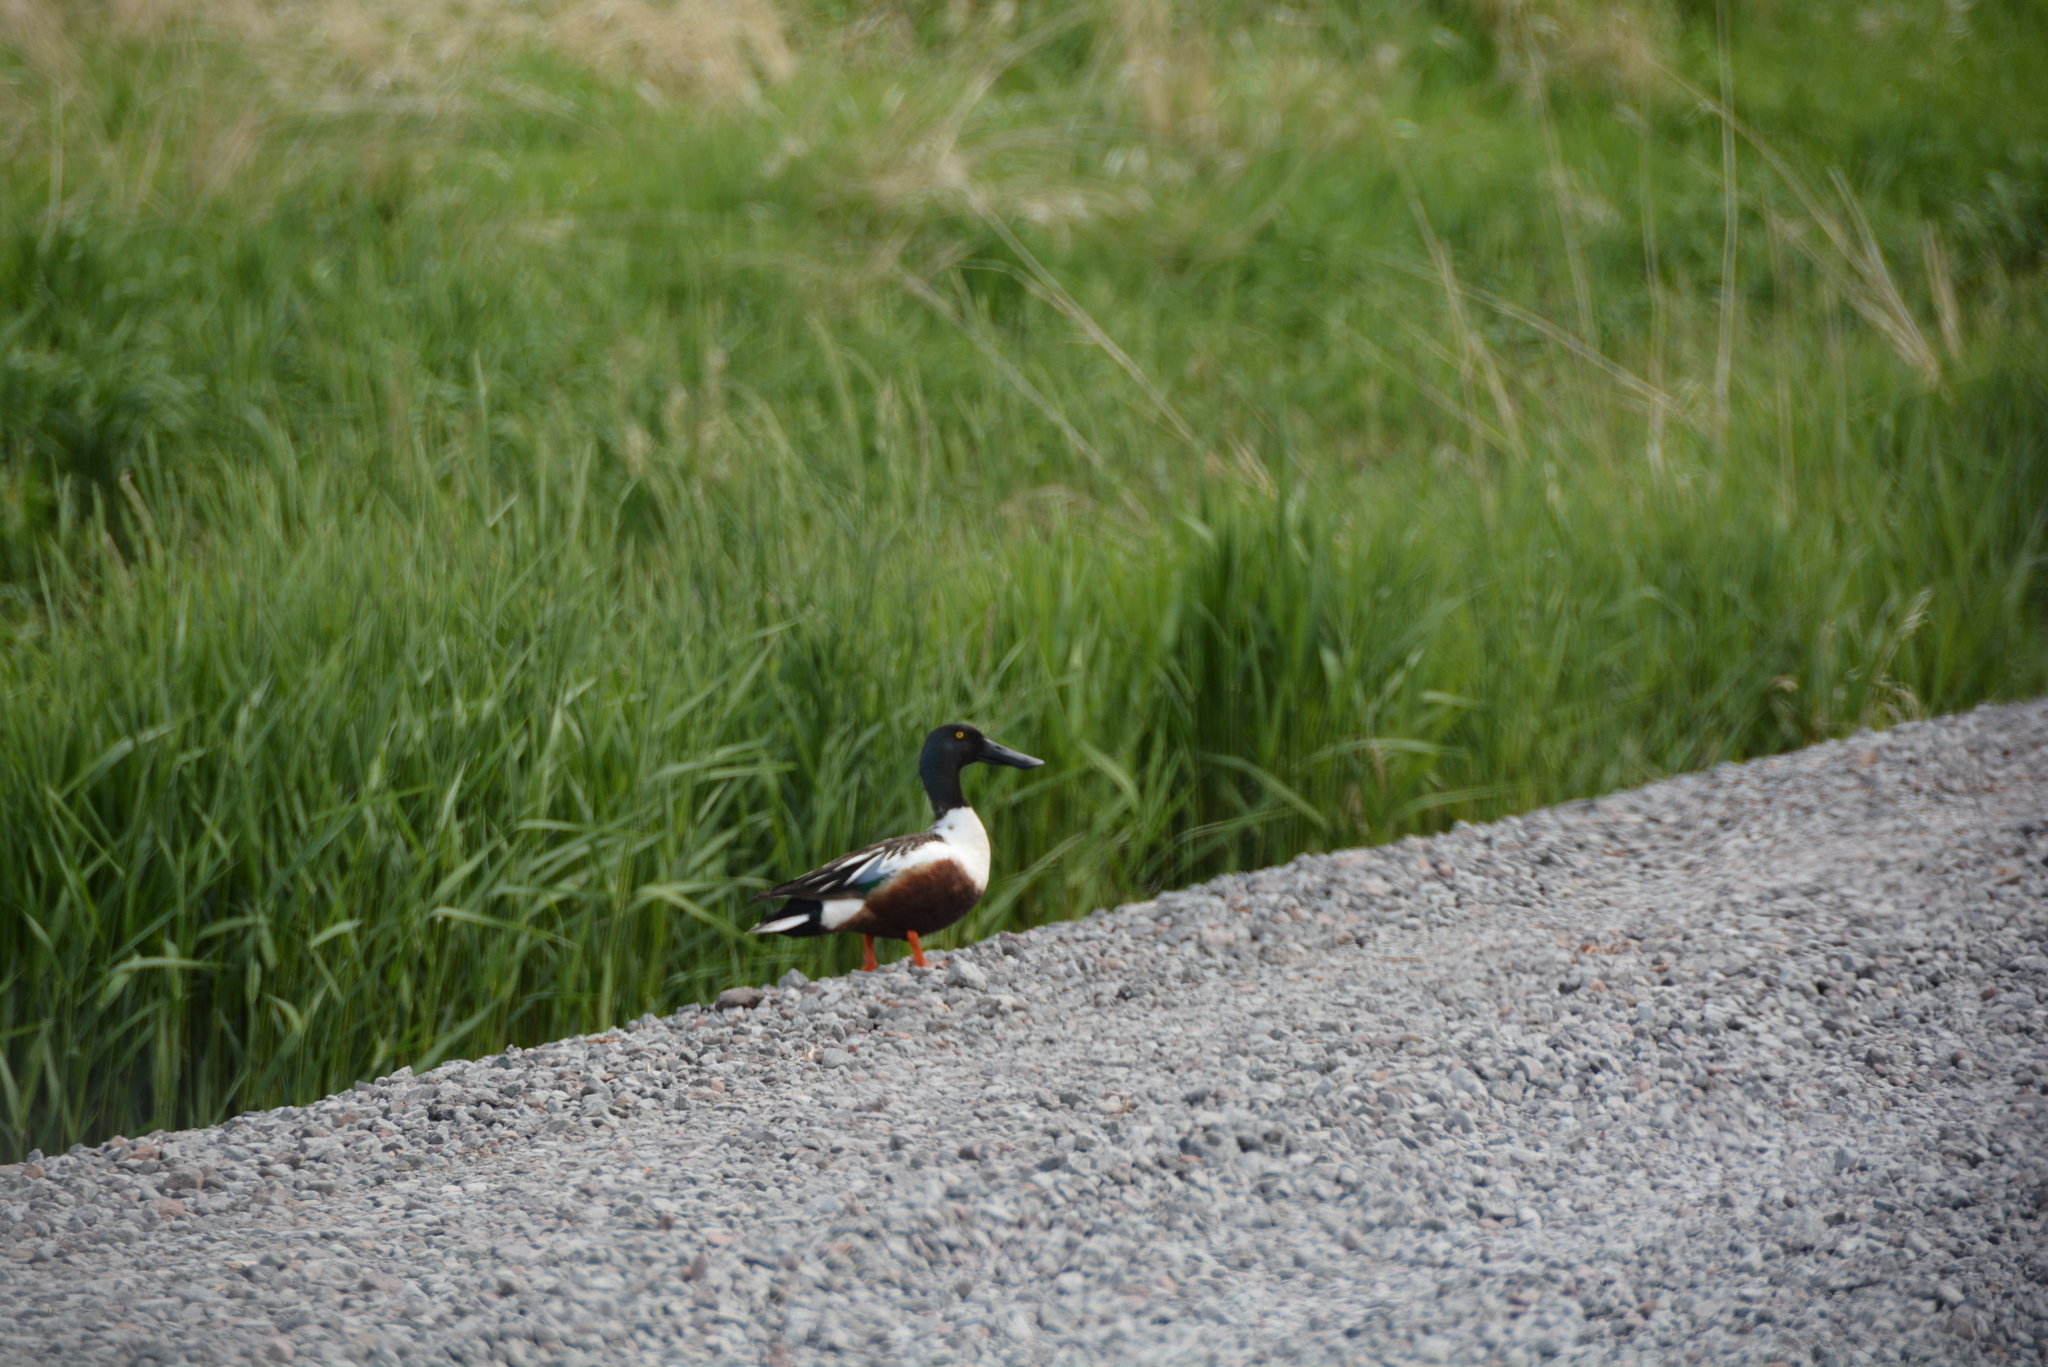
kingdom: Animalia
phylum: Chordata
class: Aves
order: Anseriformes
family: Anatidae
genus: Spatula
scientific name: Spatula clypeata
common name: Northern shoveler
